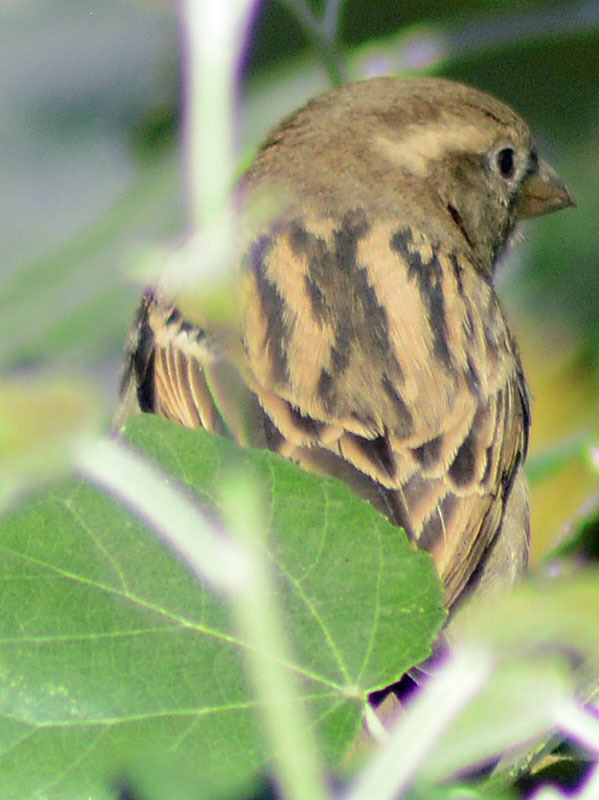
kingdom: Animalia
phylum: Chordata
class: Aves
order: Passeriformes
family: Passeridae
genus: Passer
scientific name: Passer domesticus
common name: House sparrow
